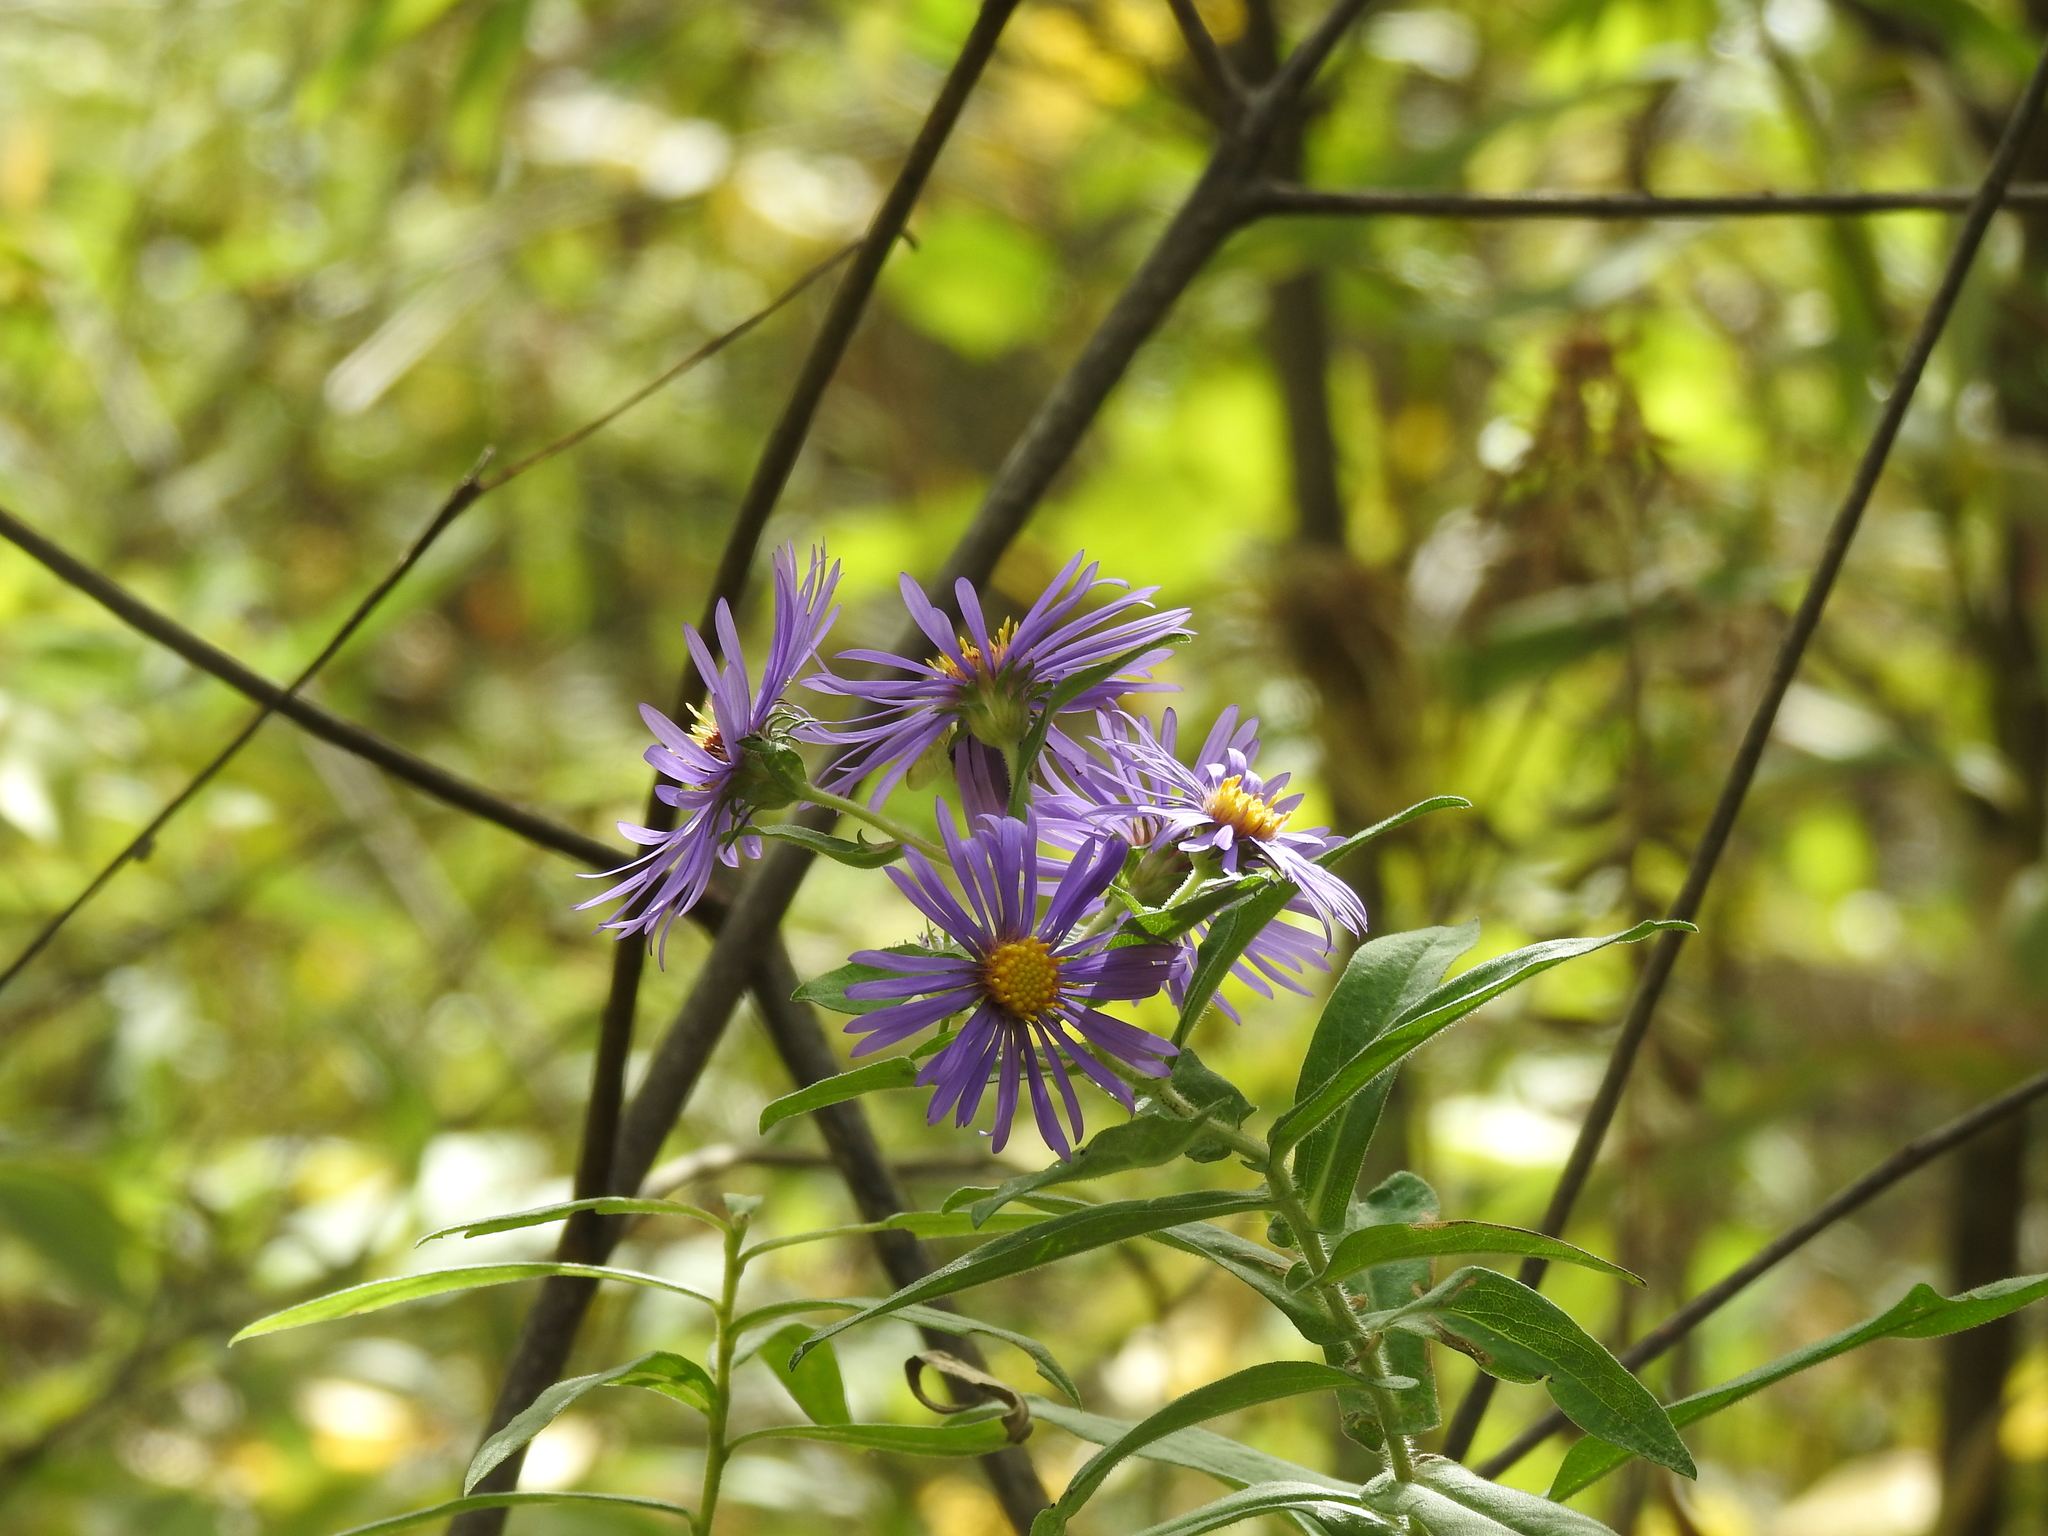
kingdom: Plantae
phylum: Tracheophyta
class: Magnoliopsida
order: Asterales
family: Asteraceae
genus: Symphyotrichum
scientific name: Symphyotrichum novae-angliae
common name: Michaelmas daisy
